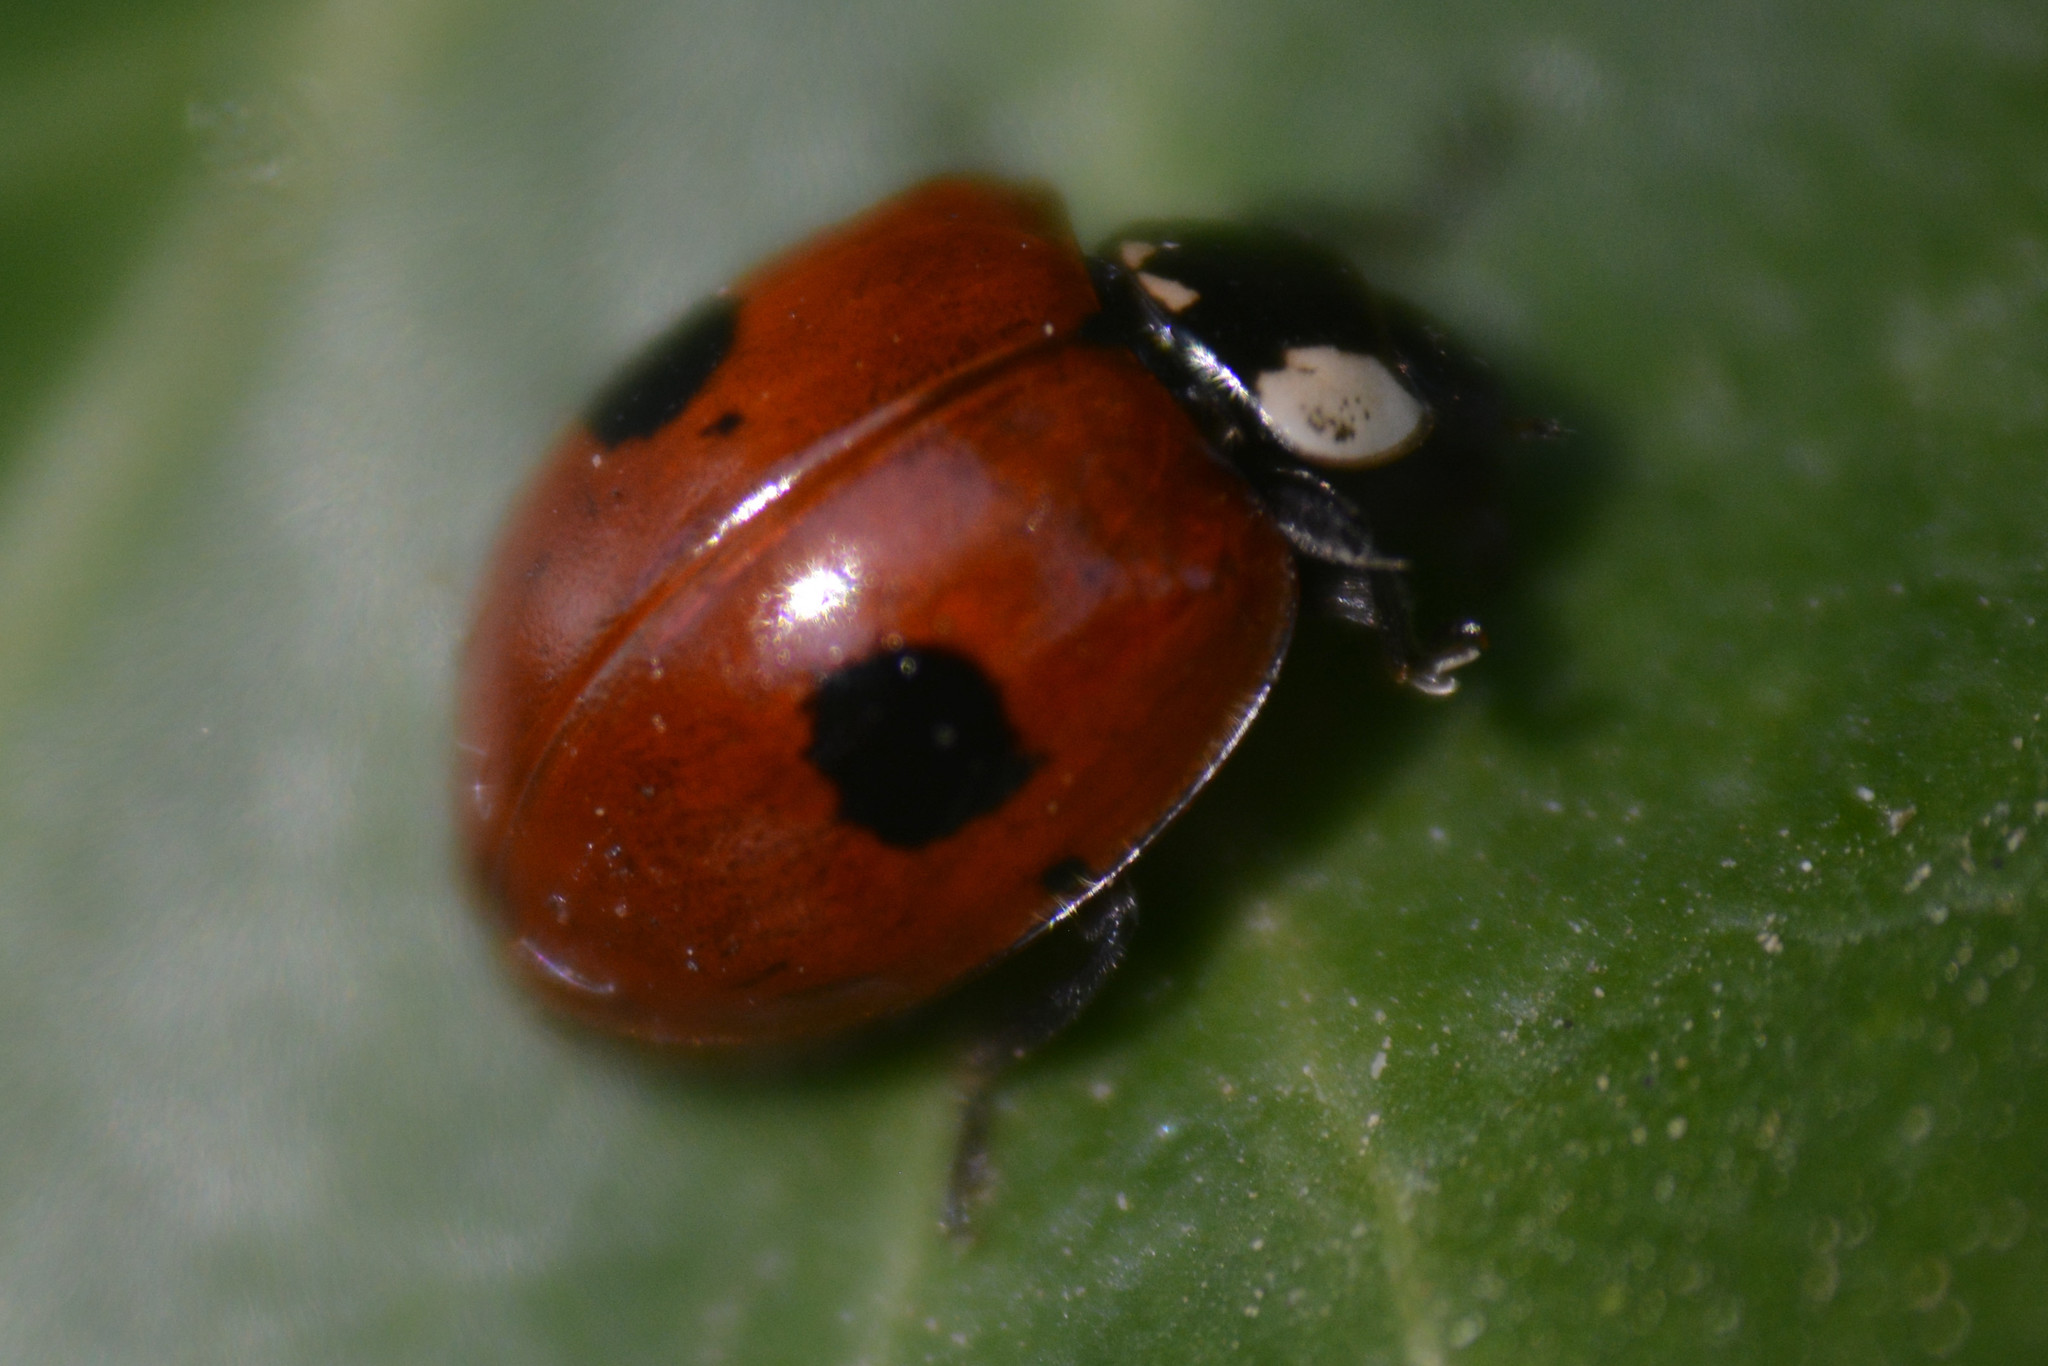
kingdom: Animalia
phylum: Arthropoda
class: Insecta
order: Coleoptera
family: Coccinellidae
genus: Adalia
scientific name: Adalia bipunctata
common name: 2-spot ladybird
